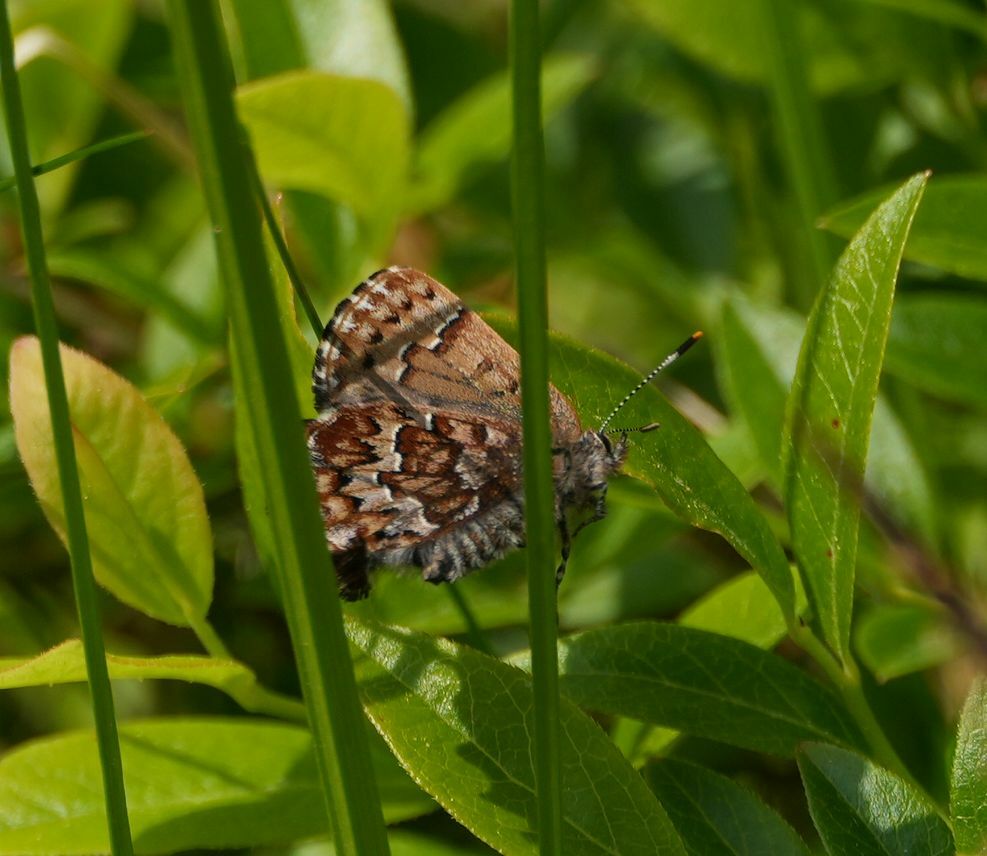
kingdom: Animalia
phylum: Arthropoda
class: Insecta
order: Lepidoptera
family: Lycaenidae
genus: Incisalia
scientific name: Incisalia niphon
